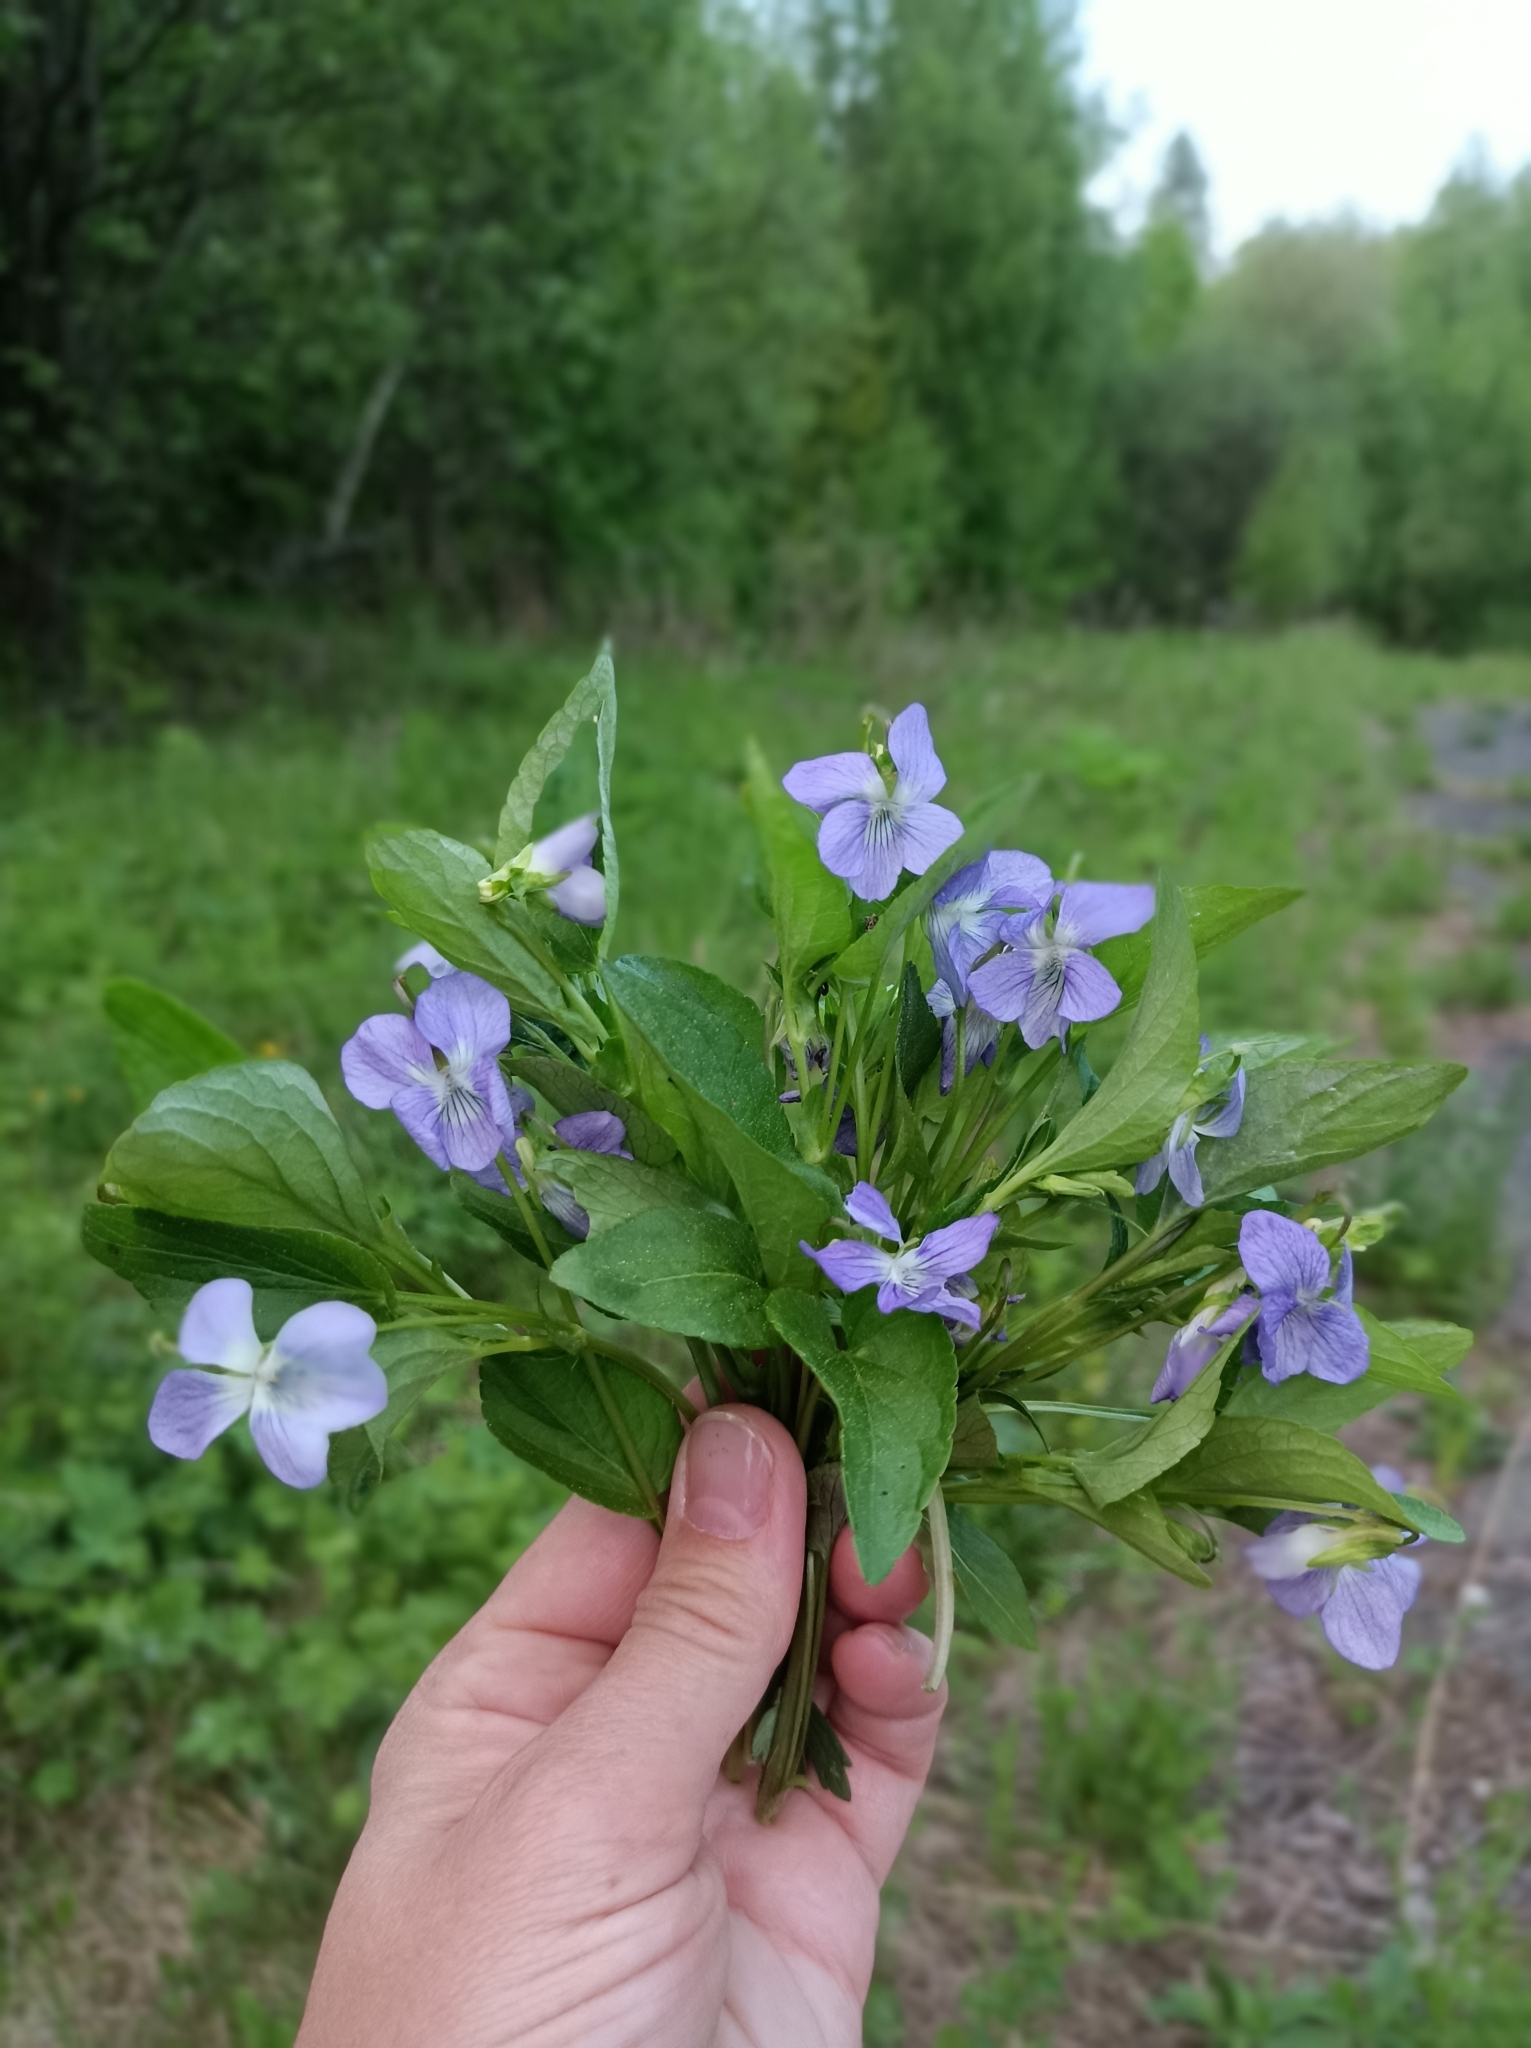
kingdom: Plantae
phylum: Tracheophyta
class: Magnoliopsida
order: Malpighiales
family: Violaceae
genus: Viola
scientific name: Viola canina
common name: Heath dog-violet
